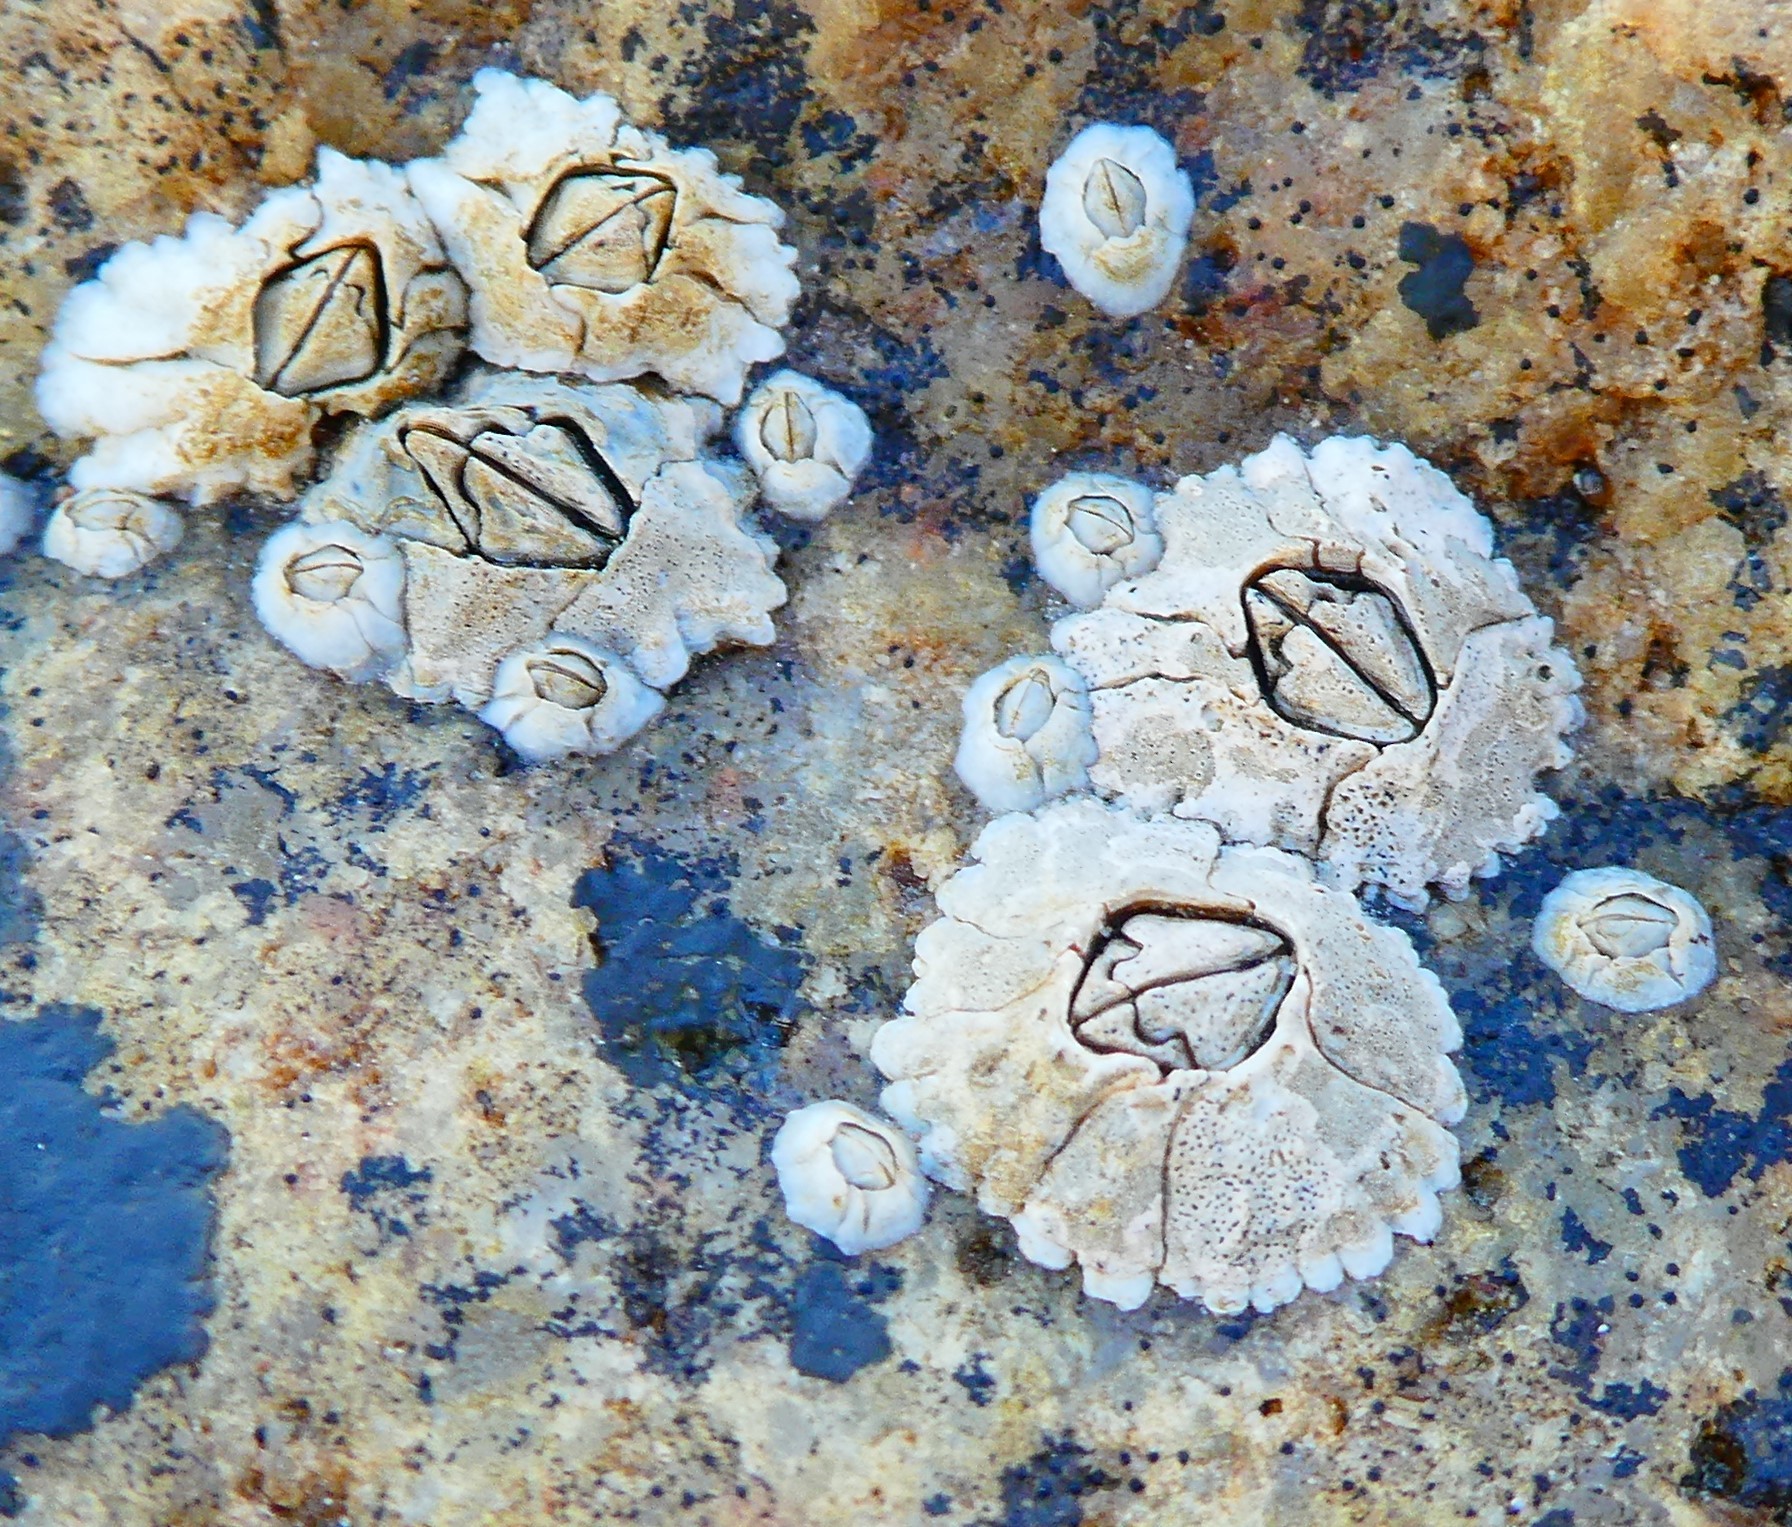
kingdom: Animalia
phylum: Arthropoda
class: Maxillopoda
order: Sessilia
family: Archaeobalanidae
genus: Semibalanus
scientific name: Semibalanus balanoides
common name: Acorn barnacle
